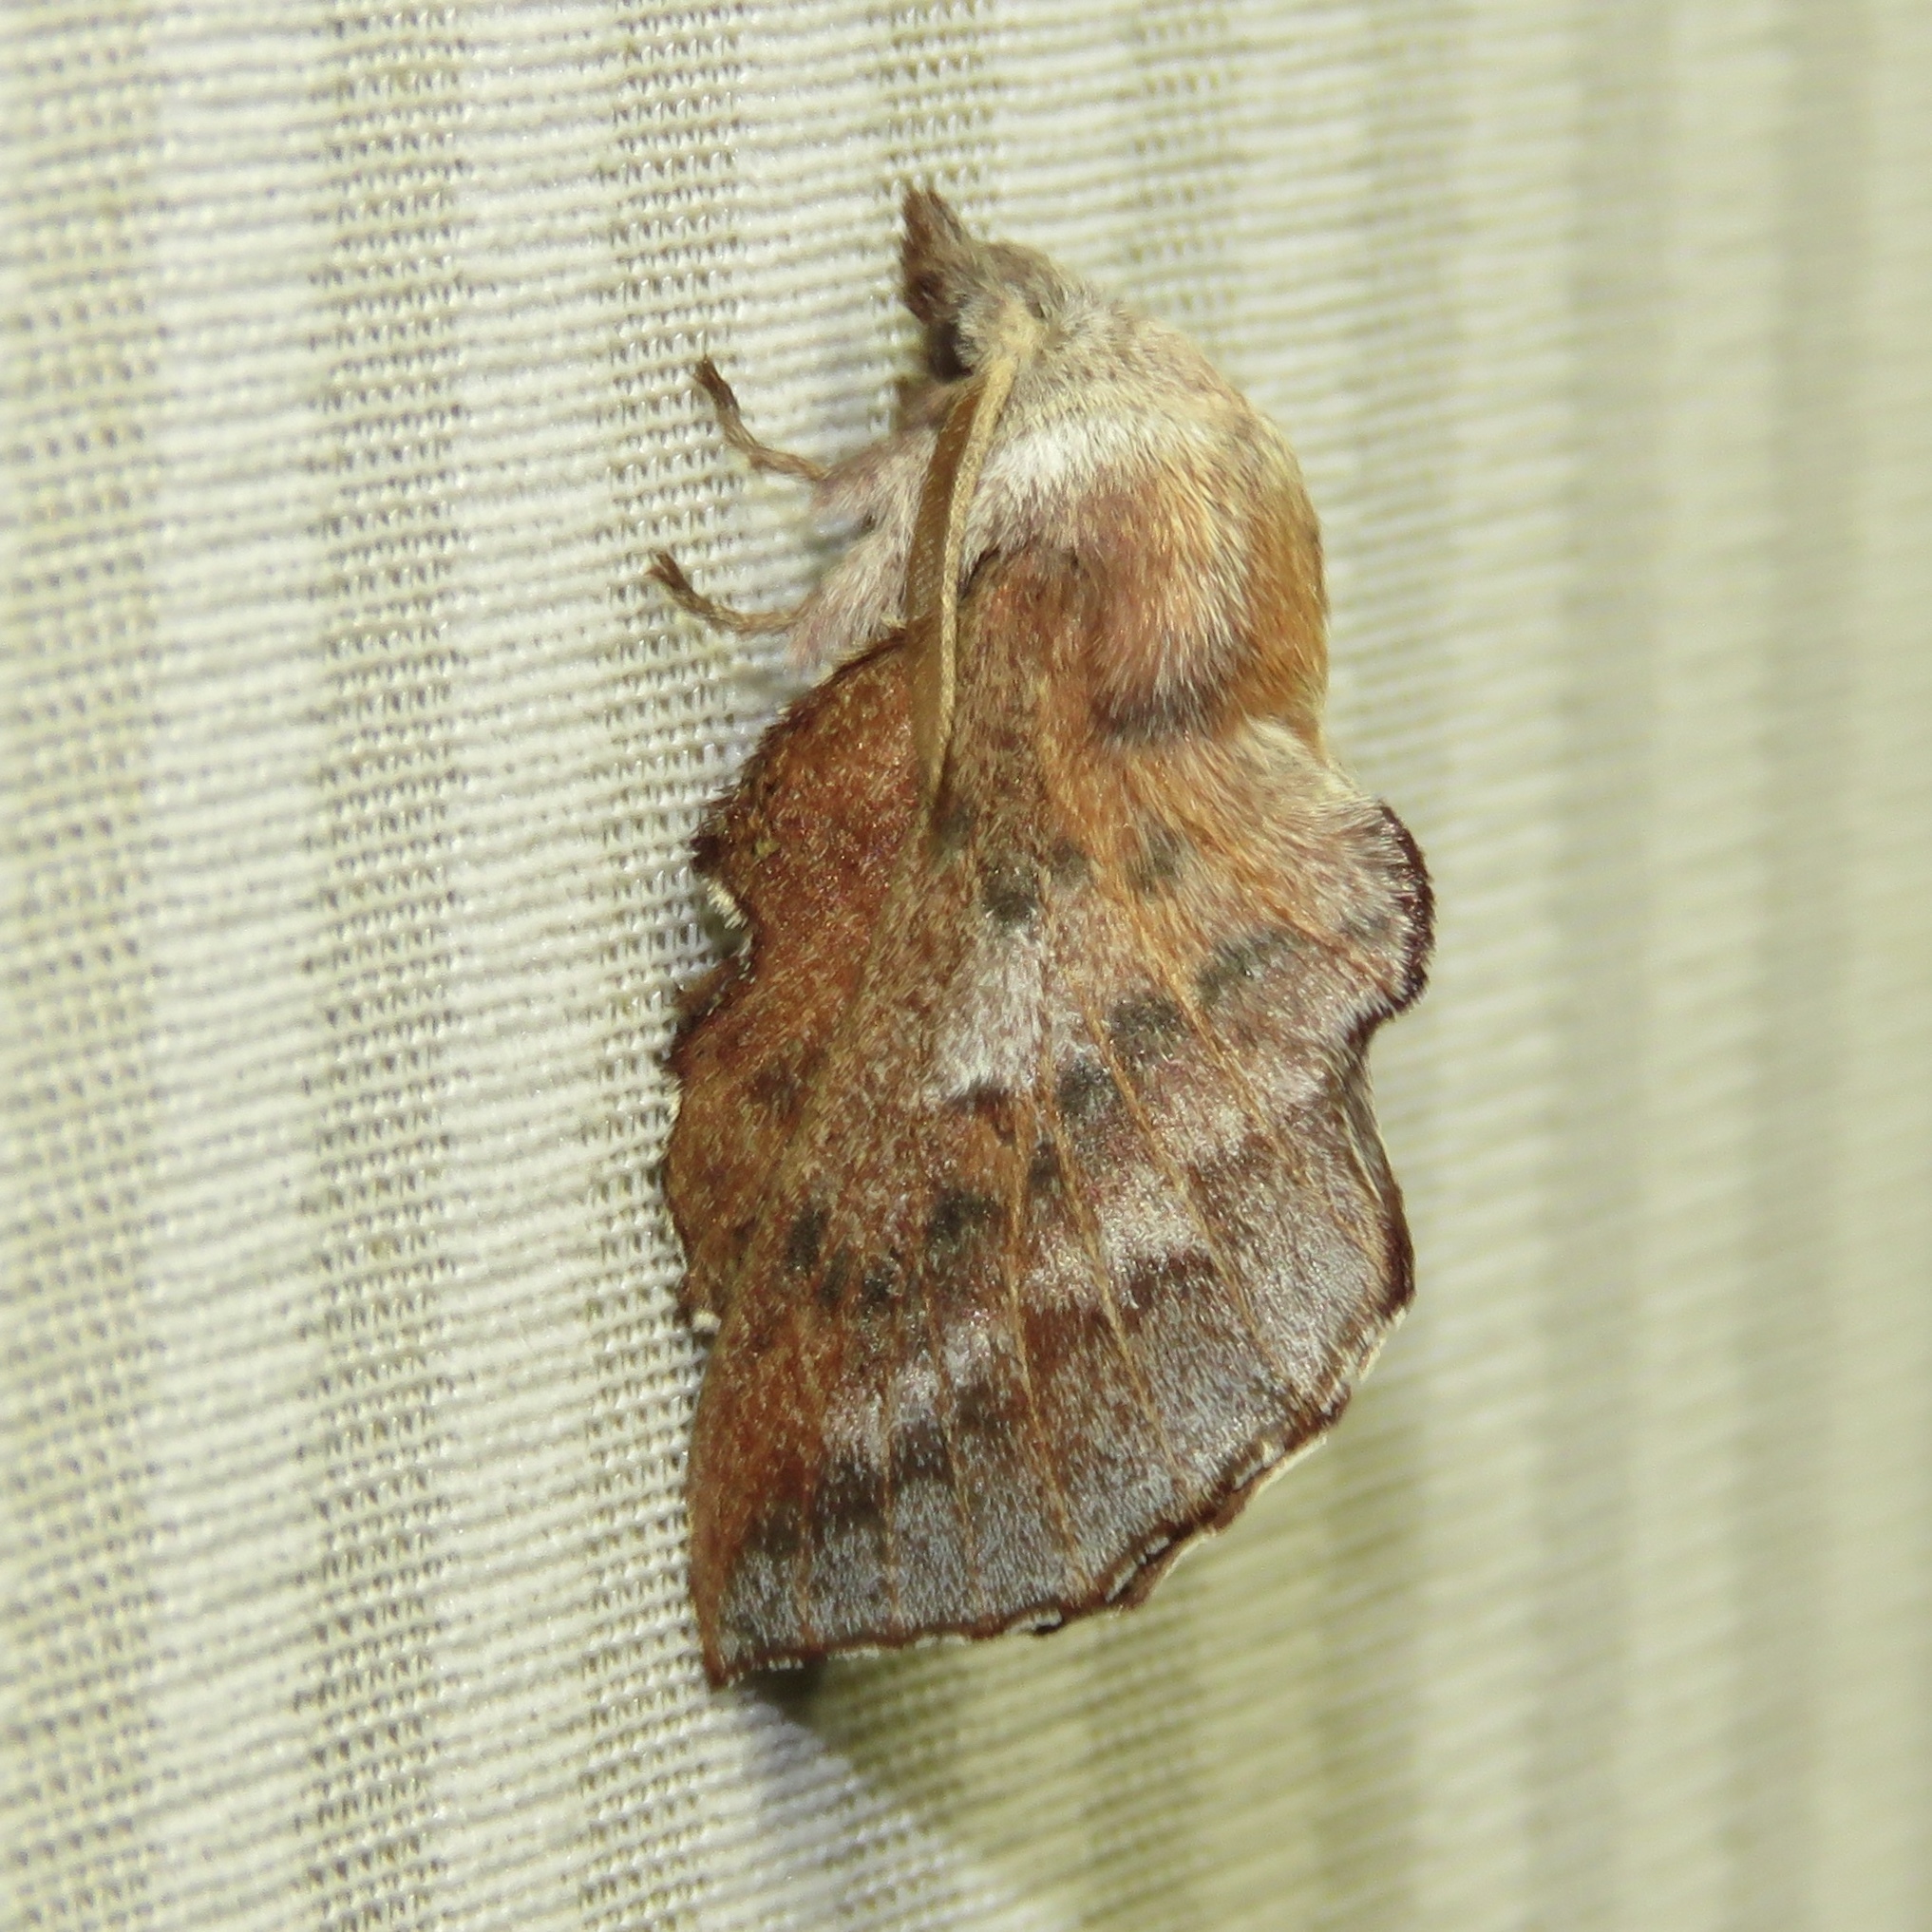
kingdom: Animalia
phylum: Arthropoda
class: Insecta
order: Lepidoptera
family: Lasiocampidae
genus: Phyllodesma
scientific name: Phyllodesma americana
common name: American lappet moth
